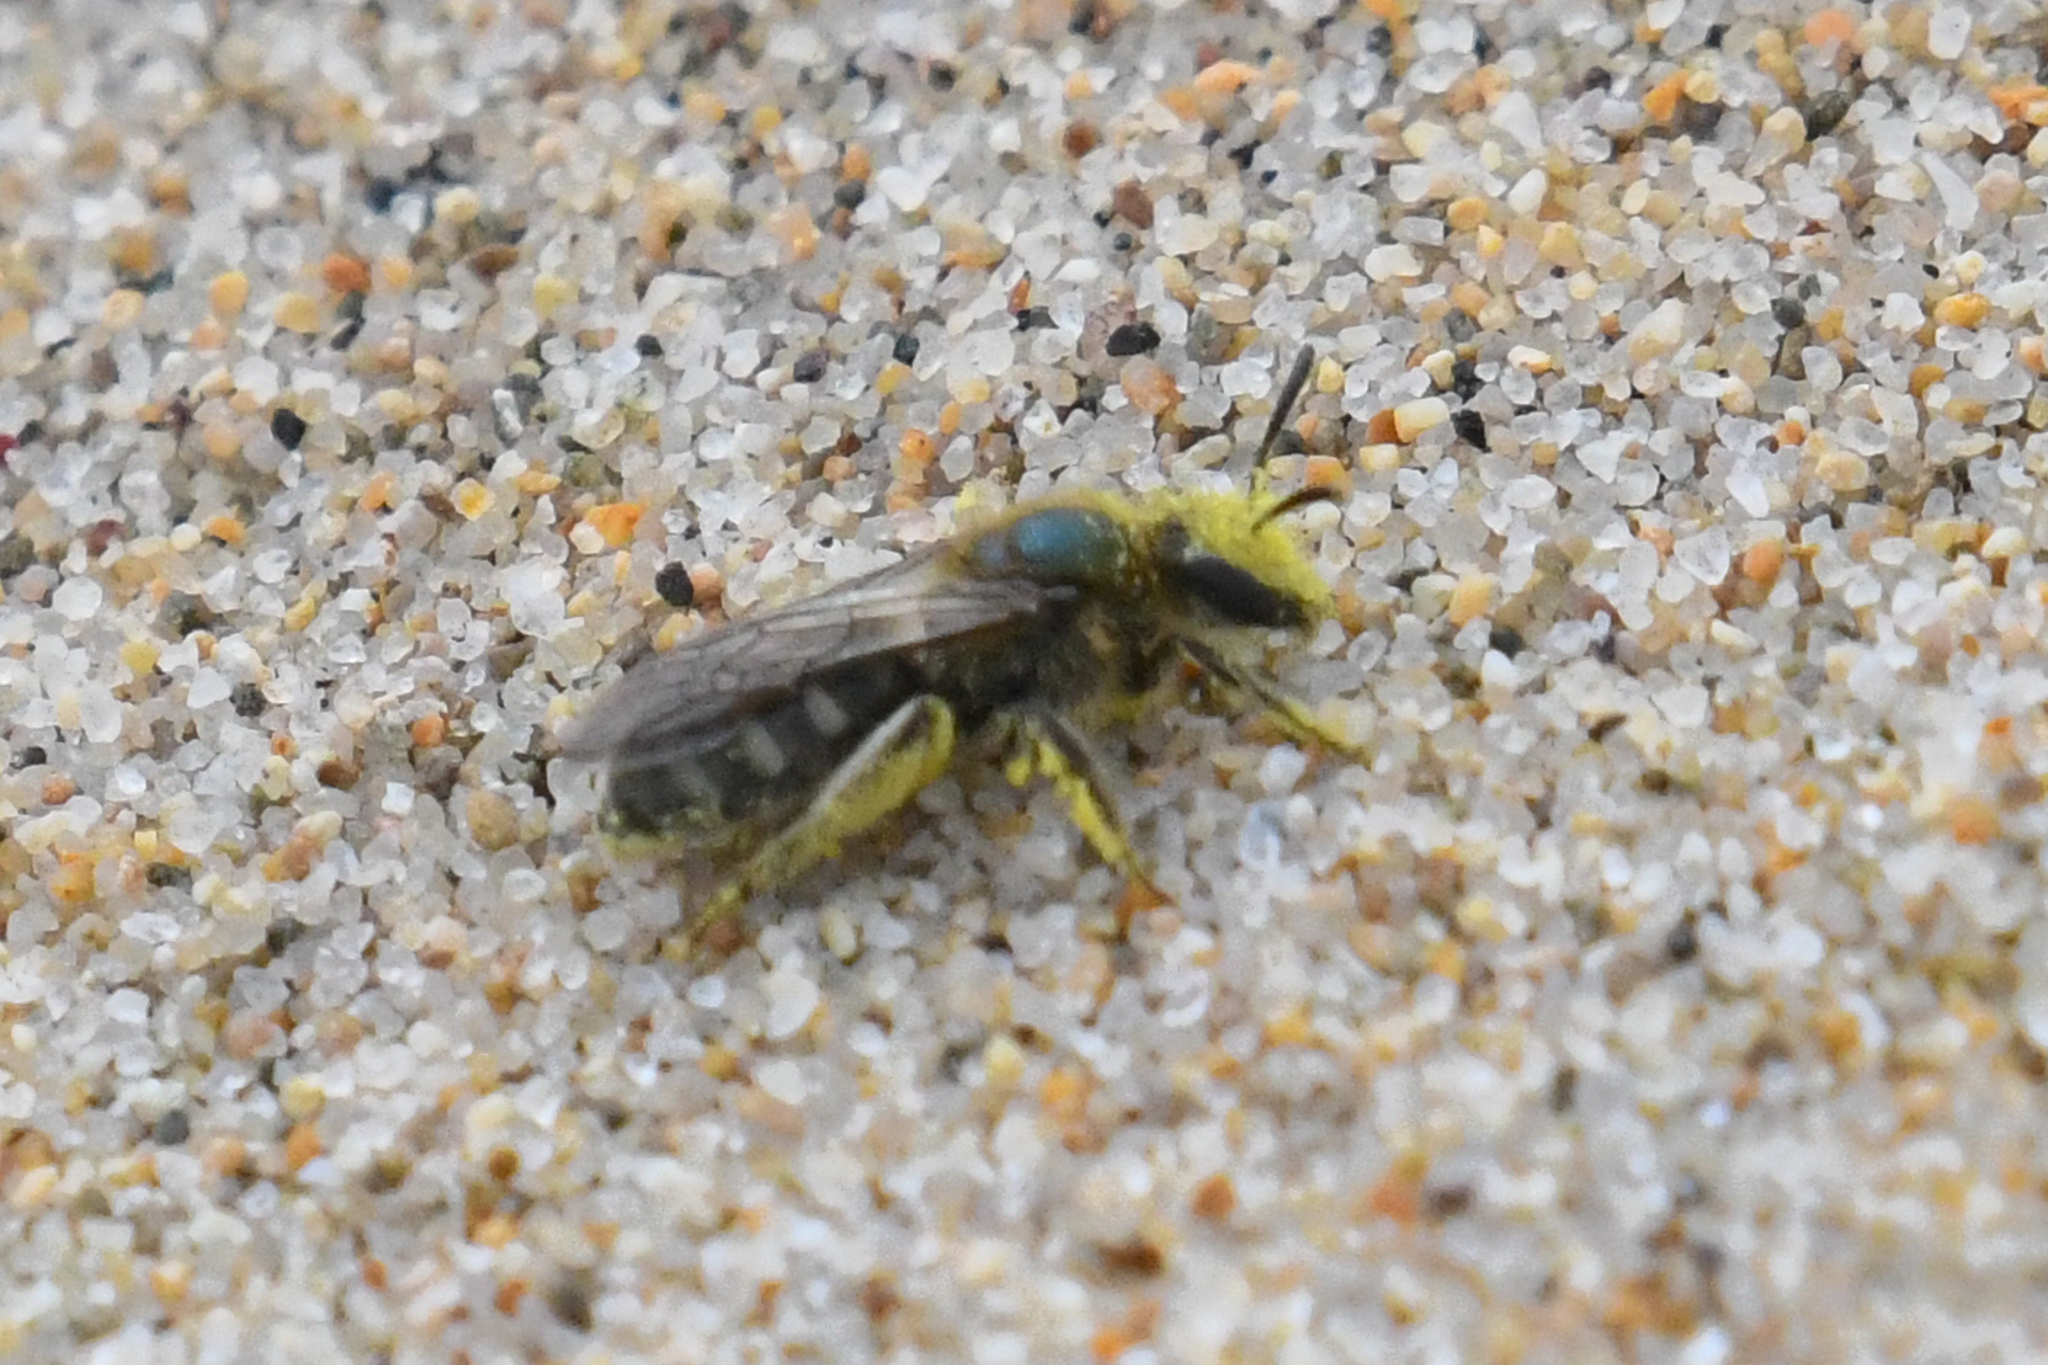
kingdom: Animalia
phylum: Arthropoda
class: Insecta
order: Hymenoptera
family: Halictidae
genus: Lasioglossum
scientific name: Lasioglossum pavonotum
